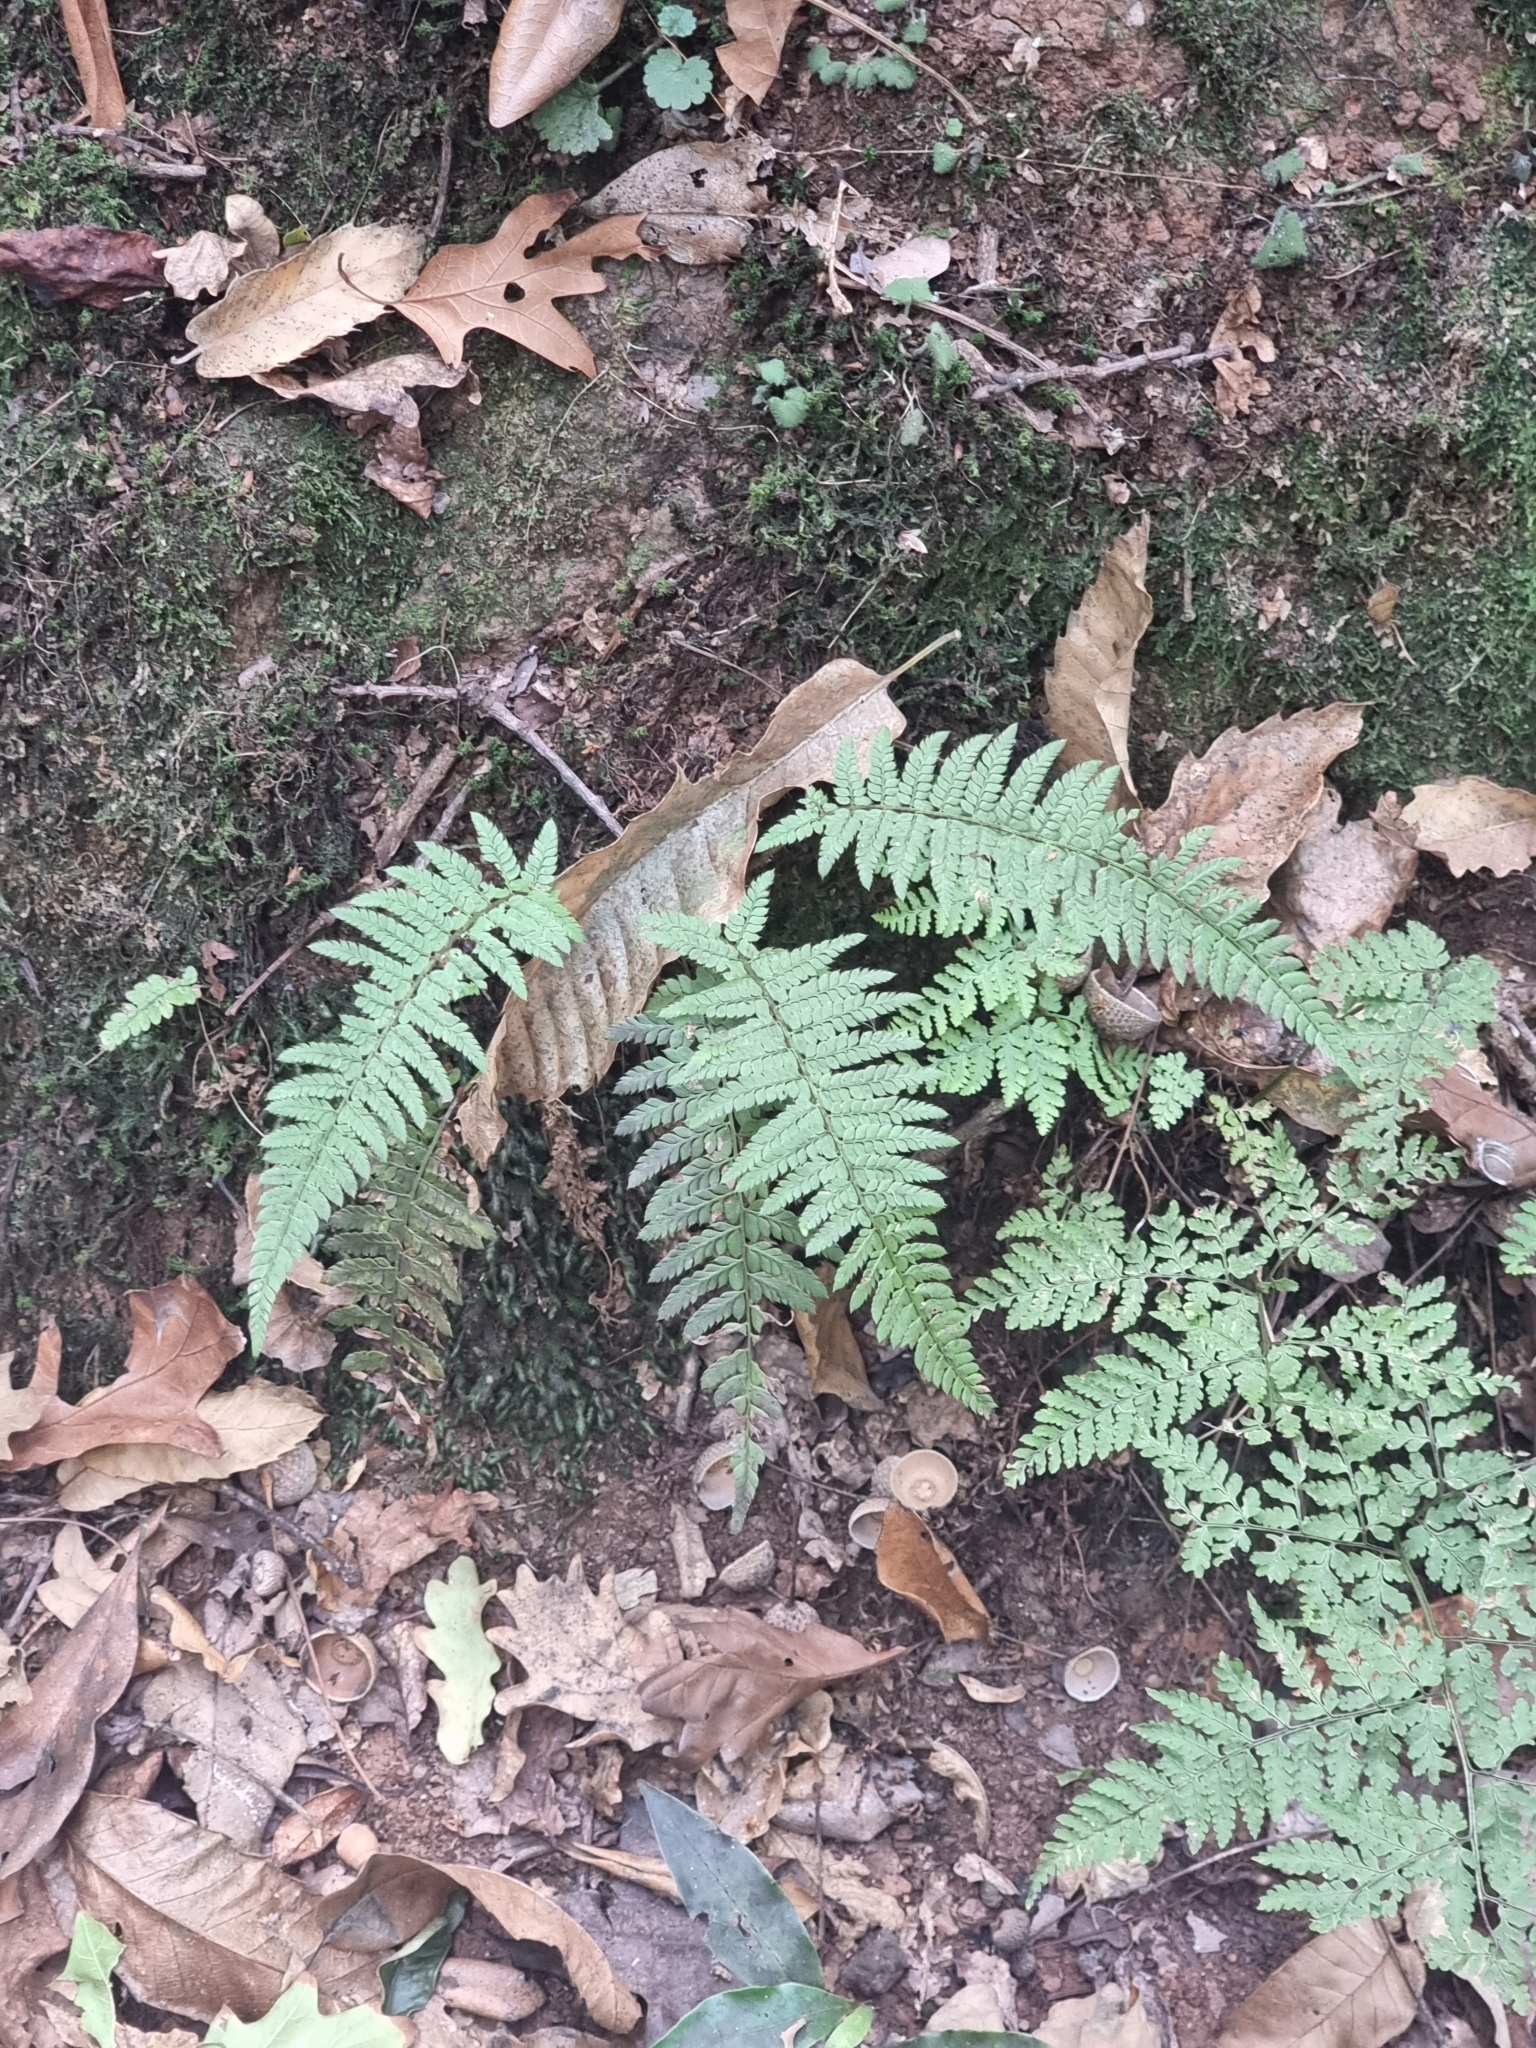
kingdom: Plantae
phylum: Tracheophyta
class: Polypodiopsida
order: Polypodiales
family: Dryopteridaceae
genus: Polystichum
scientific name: Polystichum setiferum
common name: Soft shield-fern
